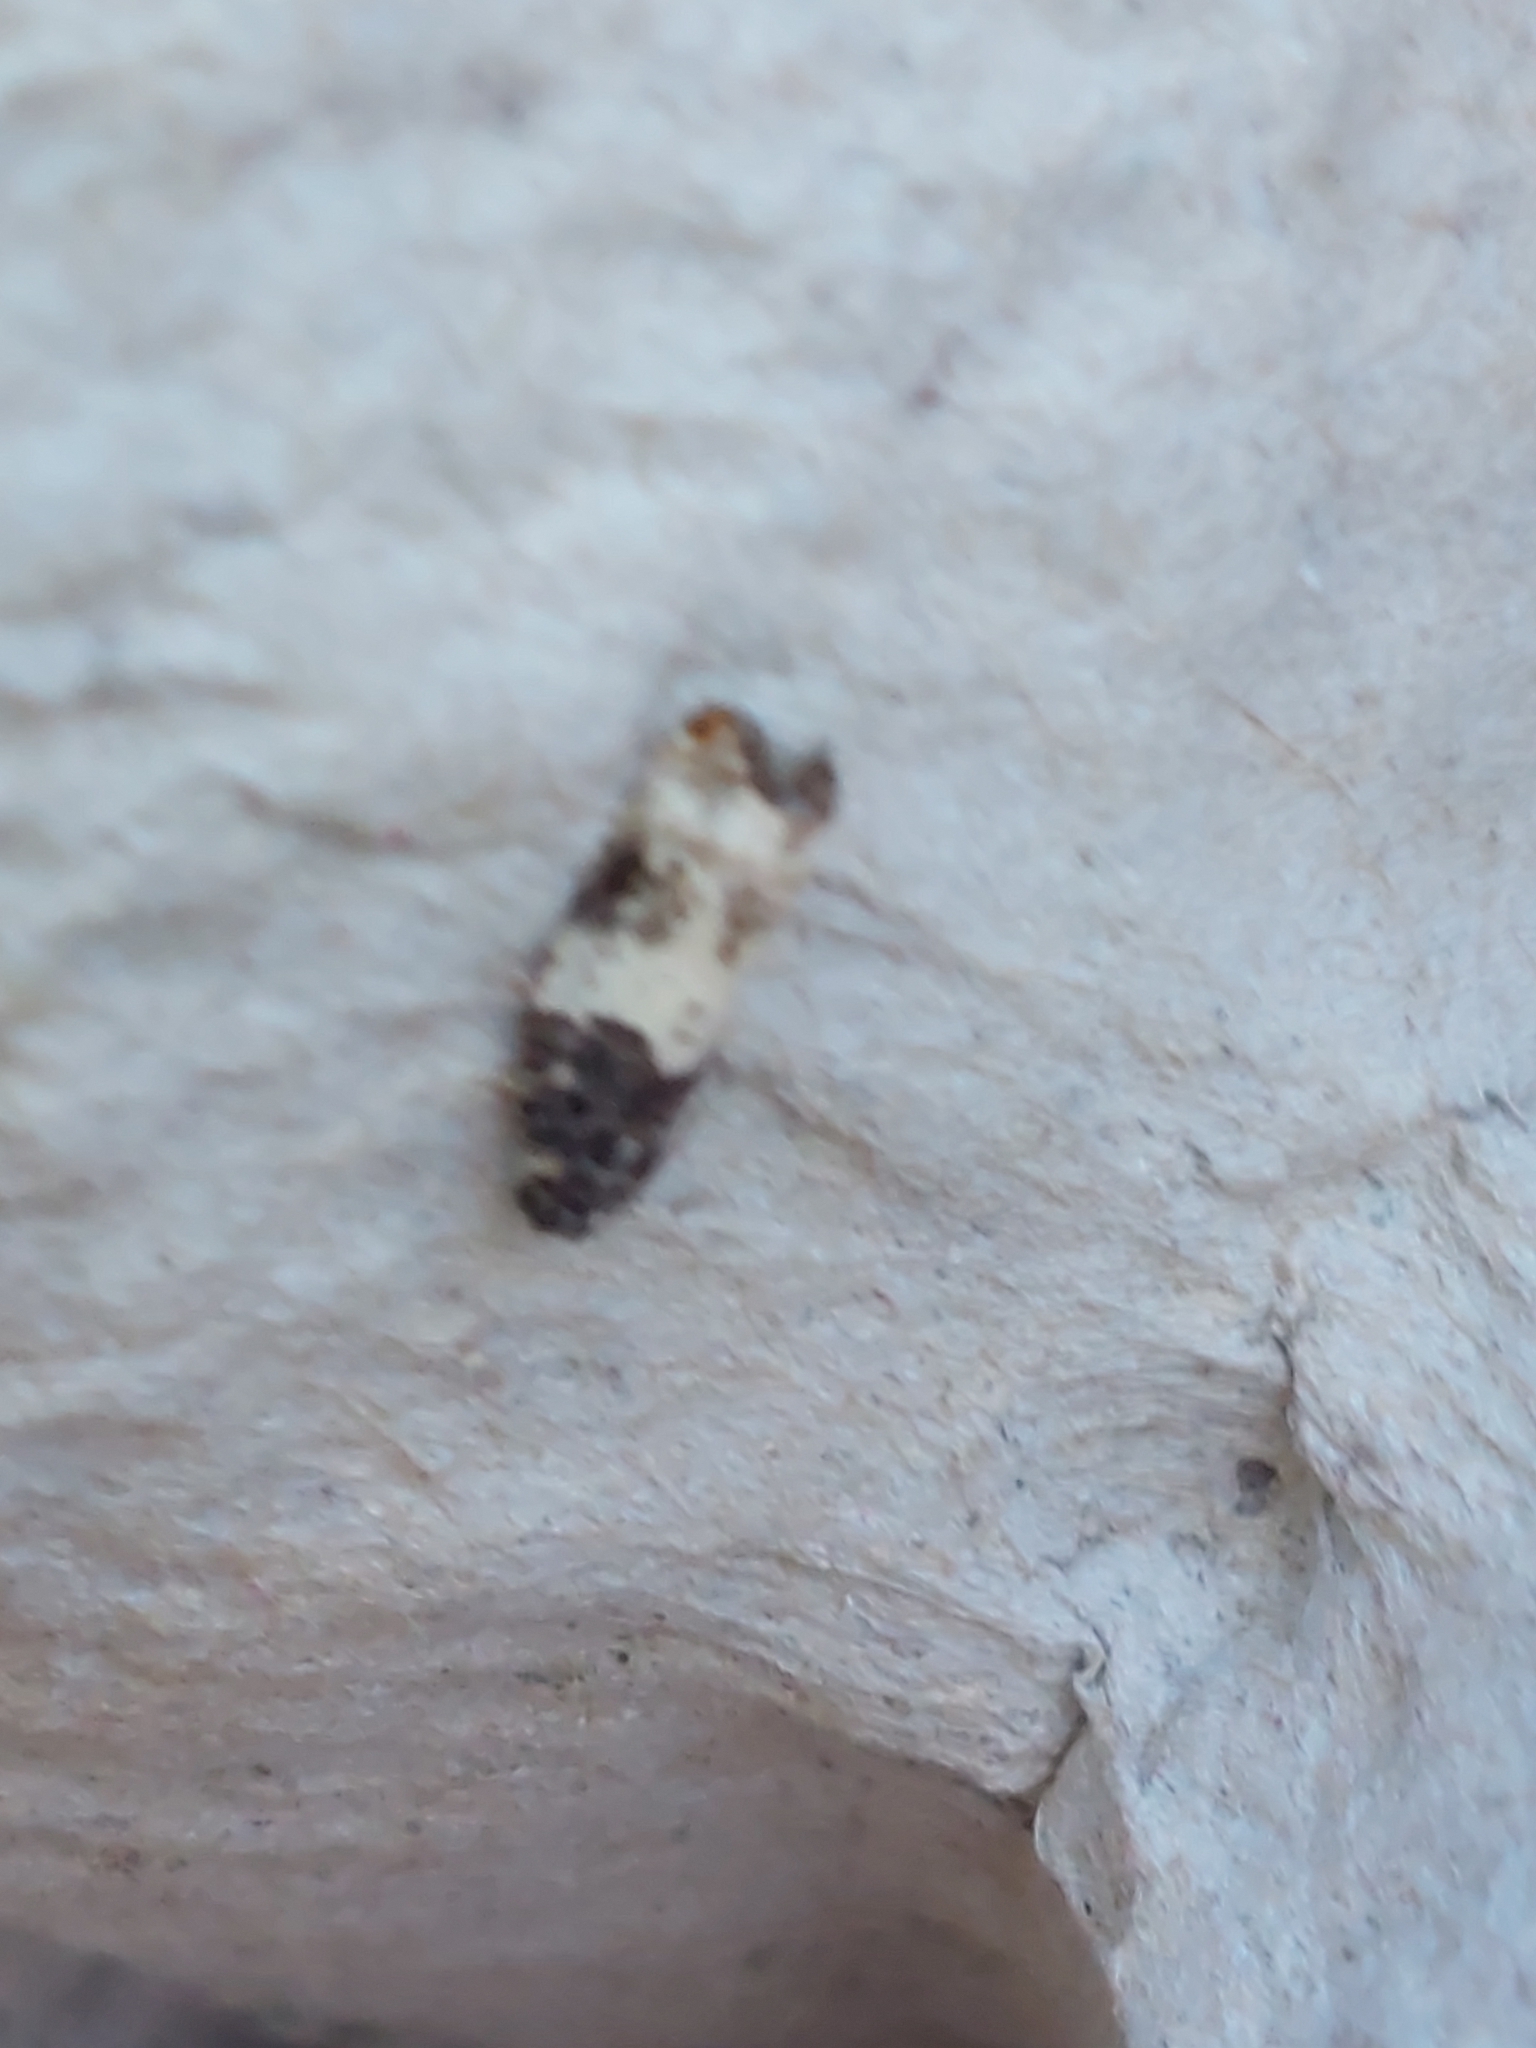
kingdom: Animalia
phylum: Arthropoda
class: Insecta
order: Lepidoptera
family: Tortricidae
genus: Cochylis
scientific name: Cochylis atricapitana
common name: Tortricid moth
